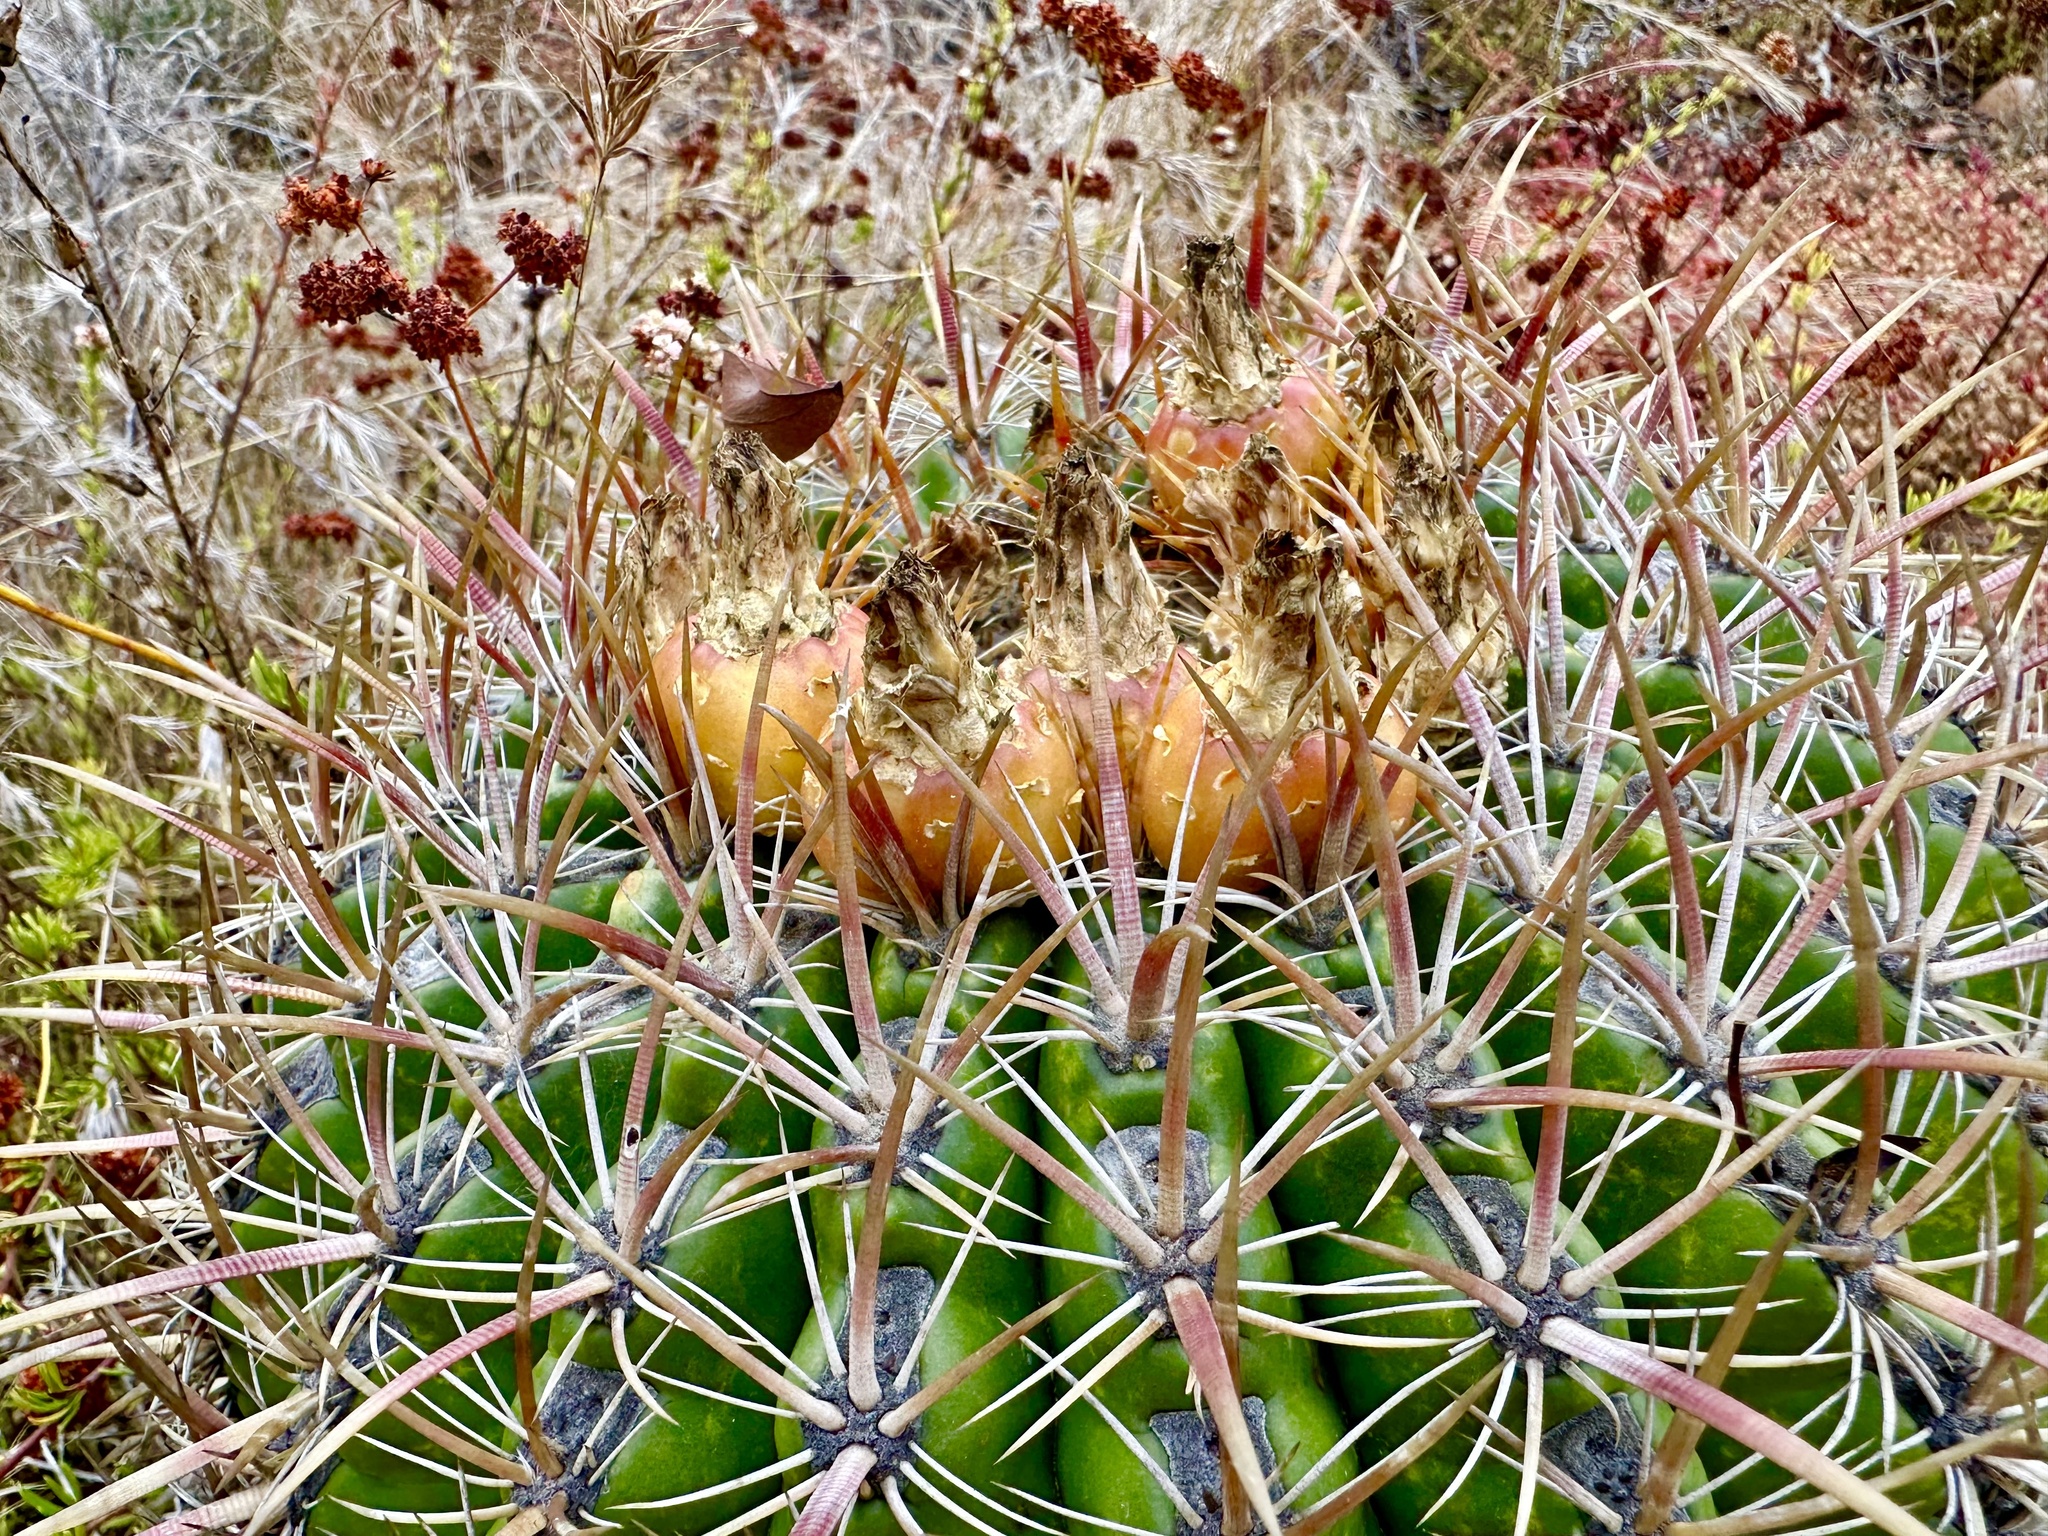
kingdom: Plantae
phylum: Tracheophyta
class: Magnoliopsida
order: Caryophyllales
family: Cactaceae
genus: Ferocactus
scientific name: Ferocactus viridescens
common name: San diego barrel cactus
